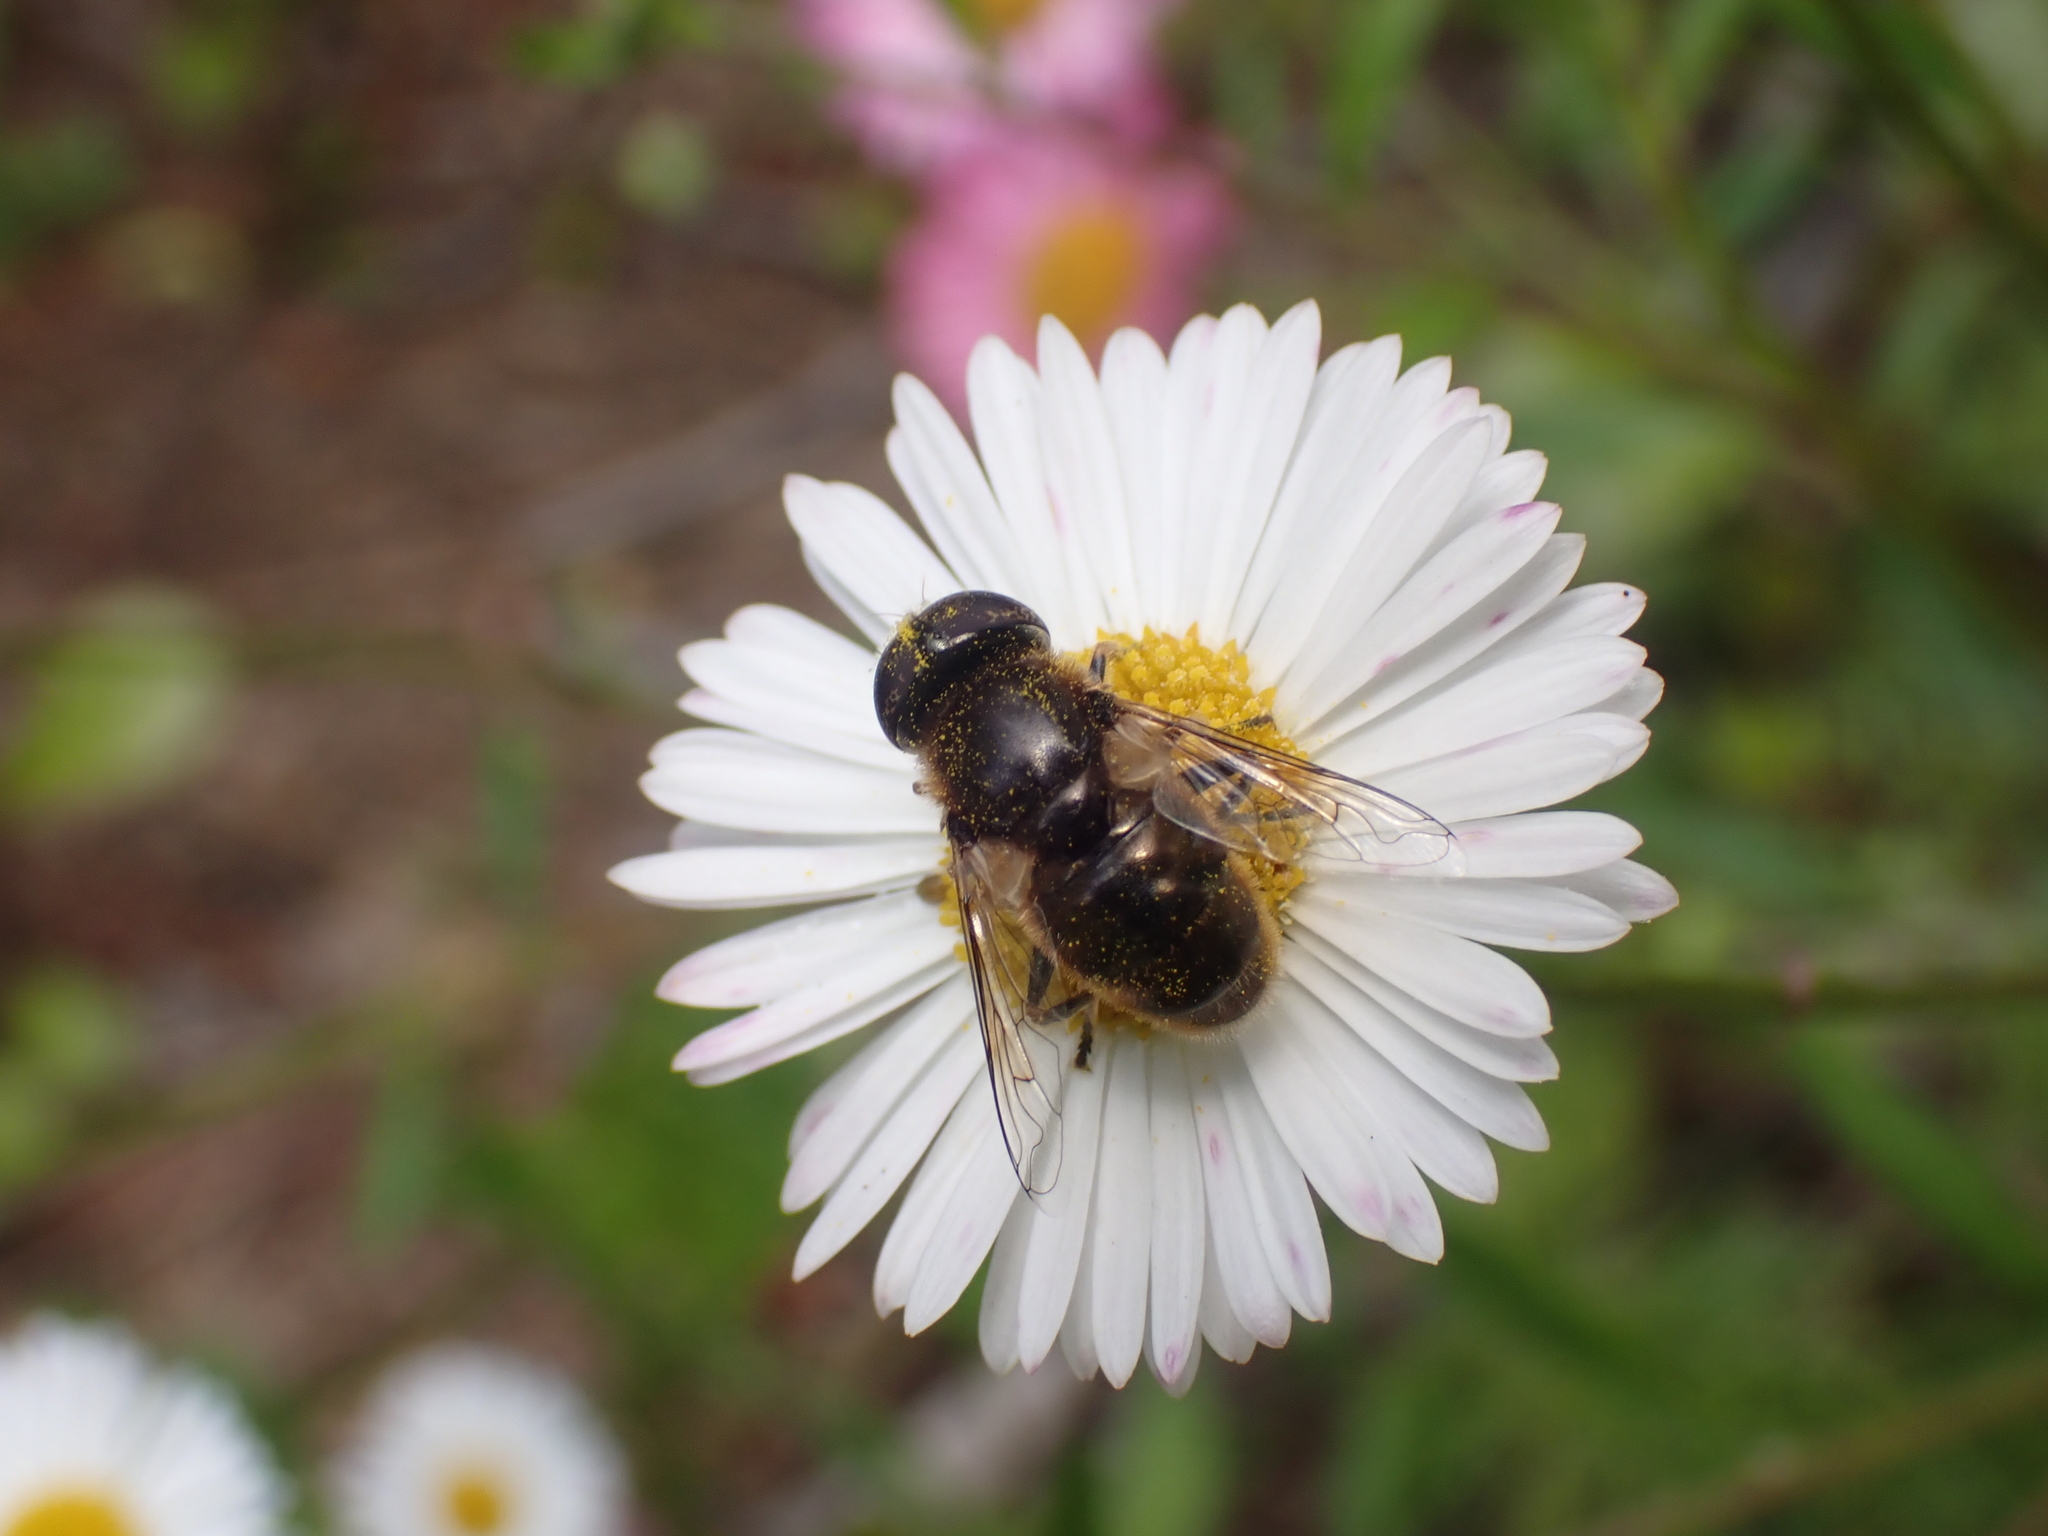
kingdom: Animalia
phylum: Arthropoda
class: Insecta
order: Diptera
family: Syrphidae
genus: Eristalinus
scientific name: Eristalinus aeneus
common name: Syrphid fly
